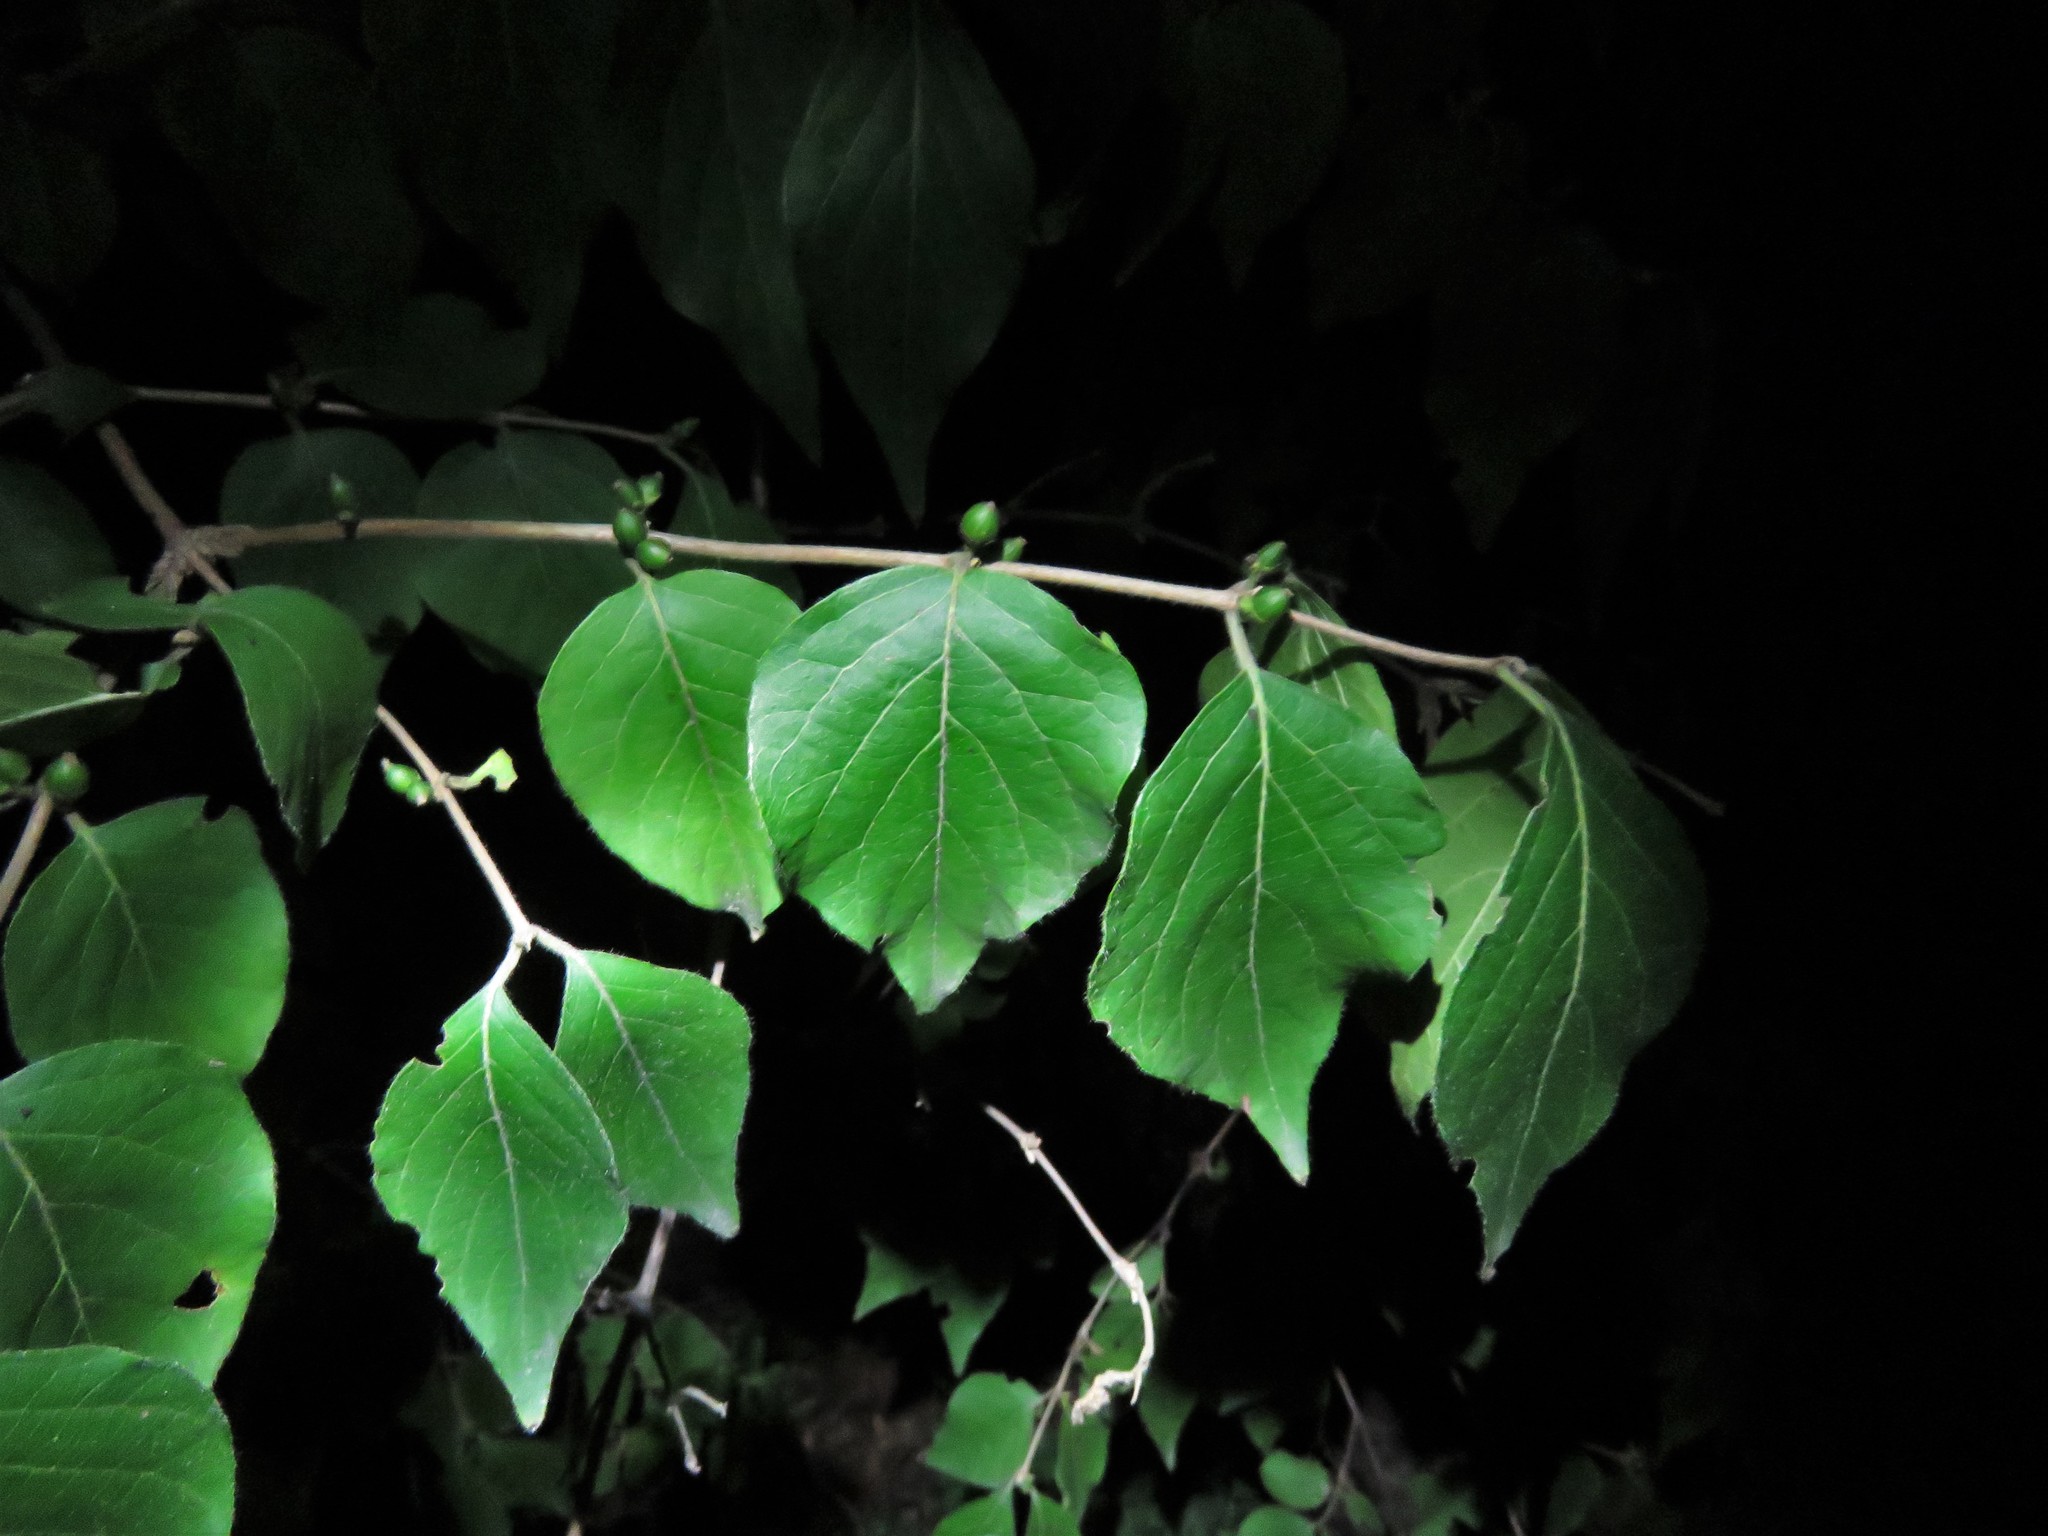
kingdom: Plantae
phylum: Tracheophyta
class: Magnoliopsida
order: Dipsacales
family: Caprifoliaceae
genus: Lonicera
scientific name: Lonicera maackii
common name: Amur honeysuckle
